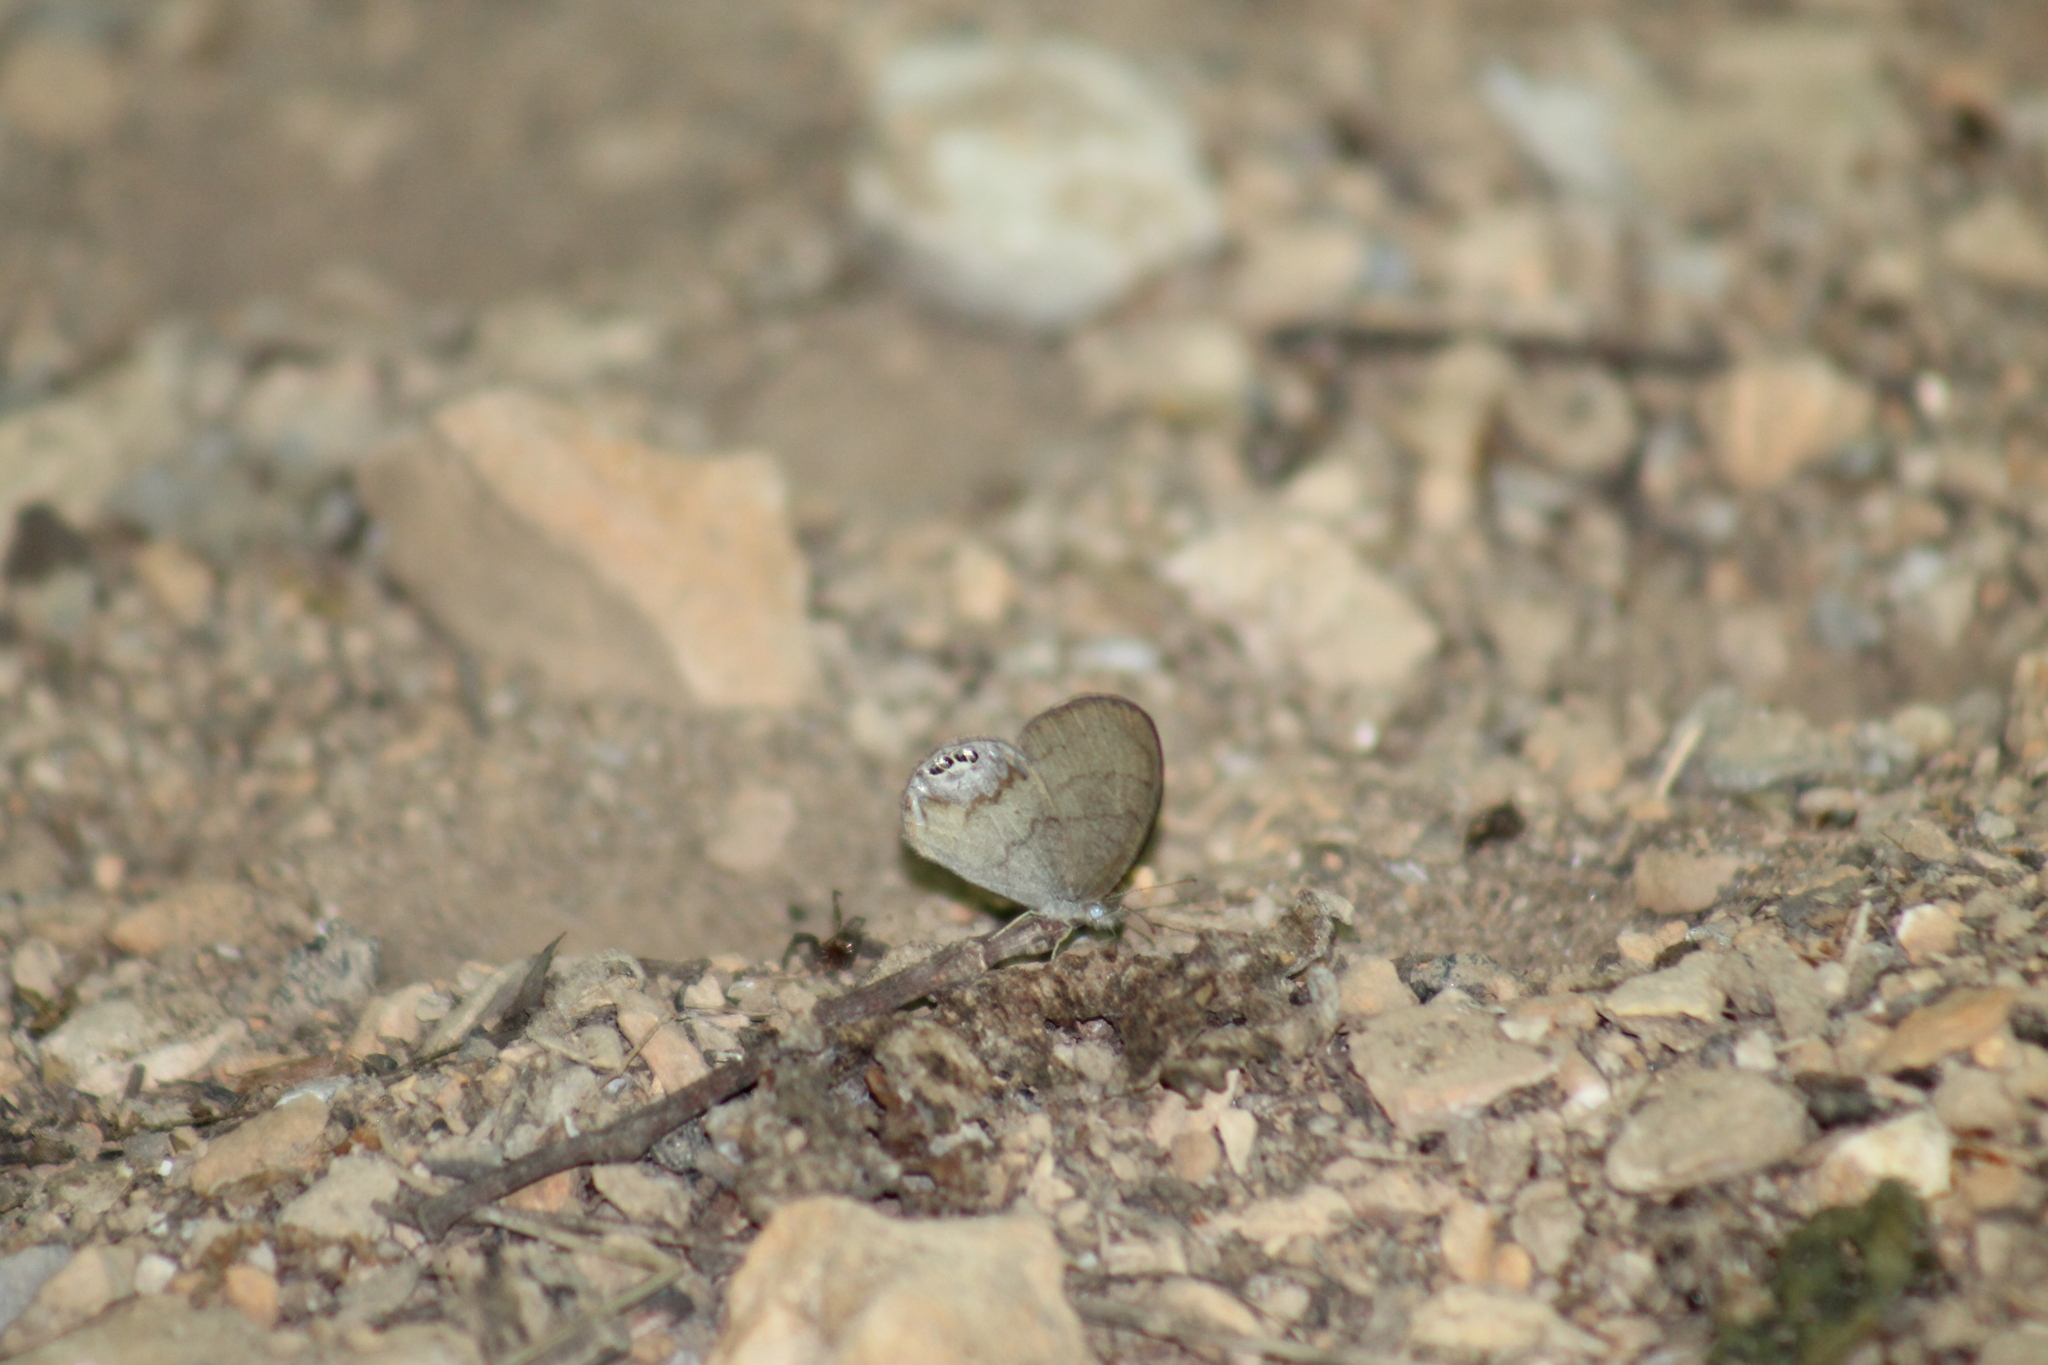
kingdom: Animalia
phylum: Arthropoda
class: Insecta
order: Lepidoptera
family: Nymphalidae
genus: Euptychia
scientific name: Euptychia cornelius
